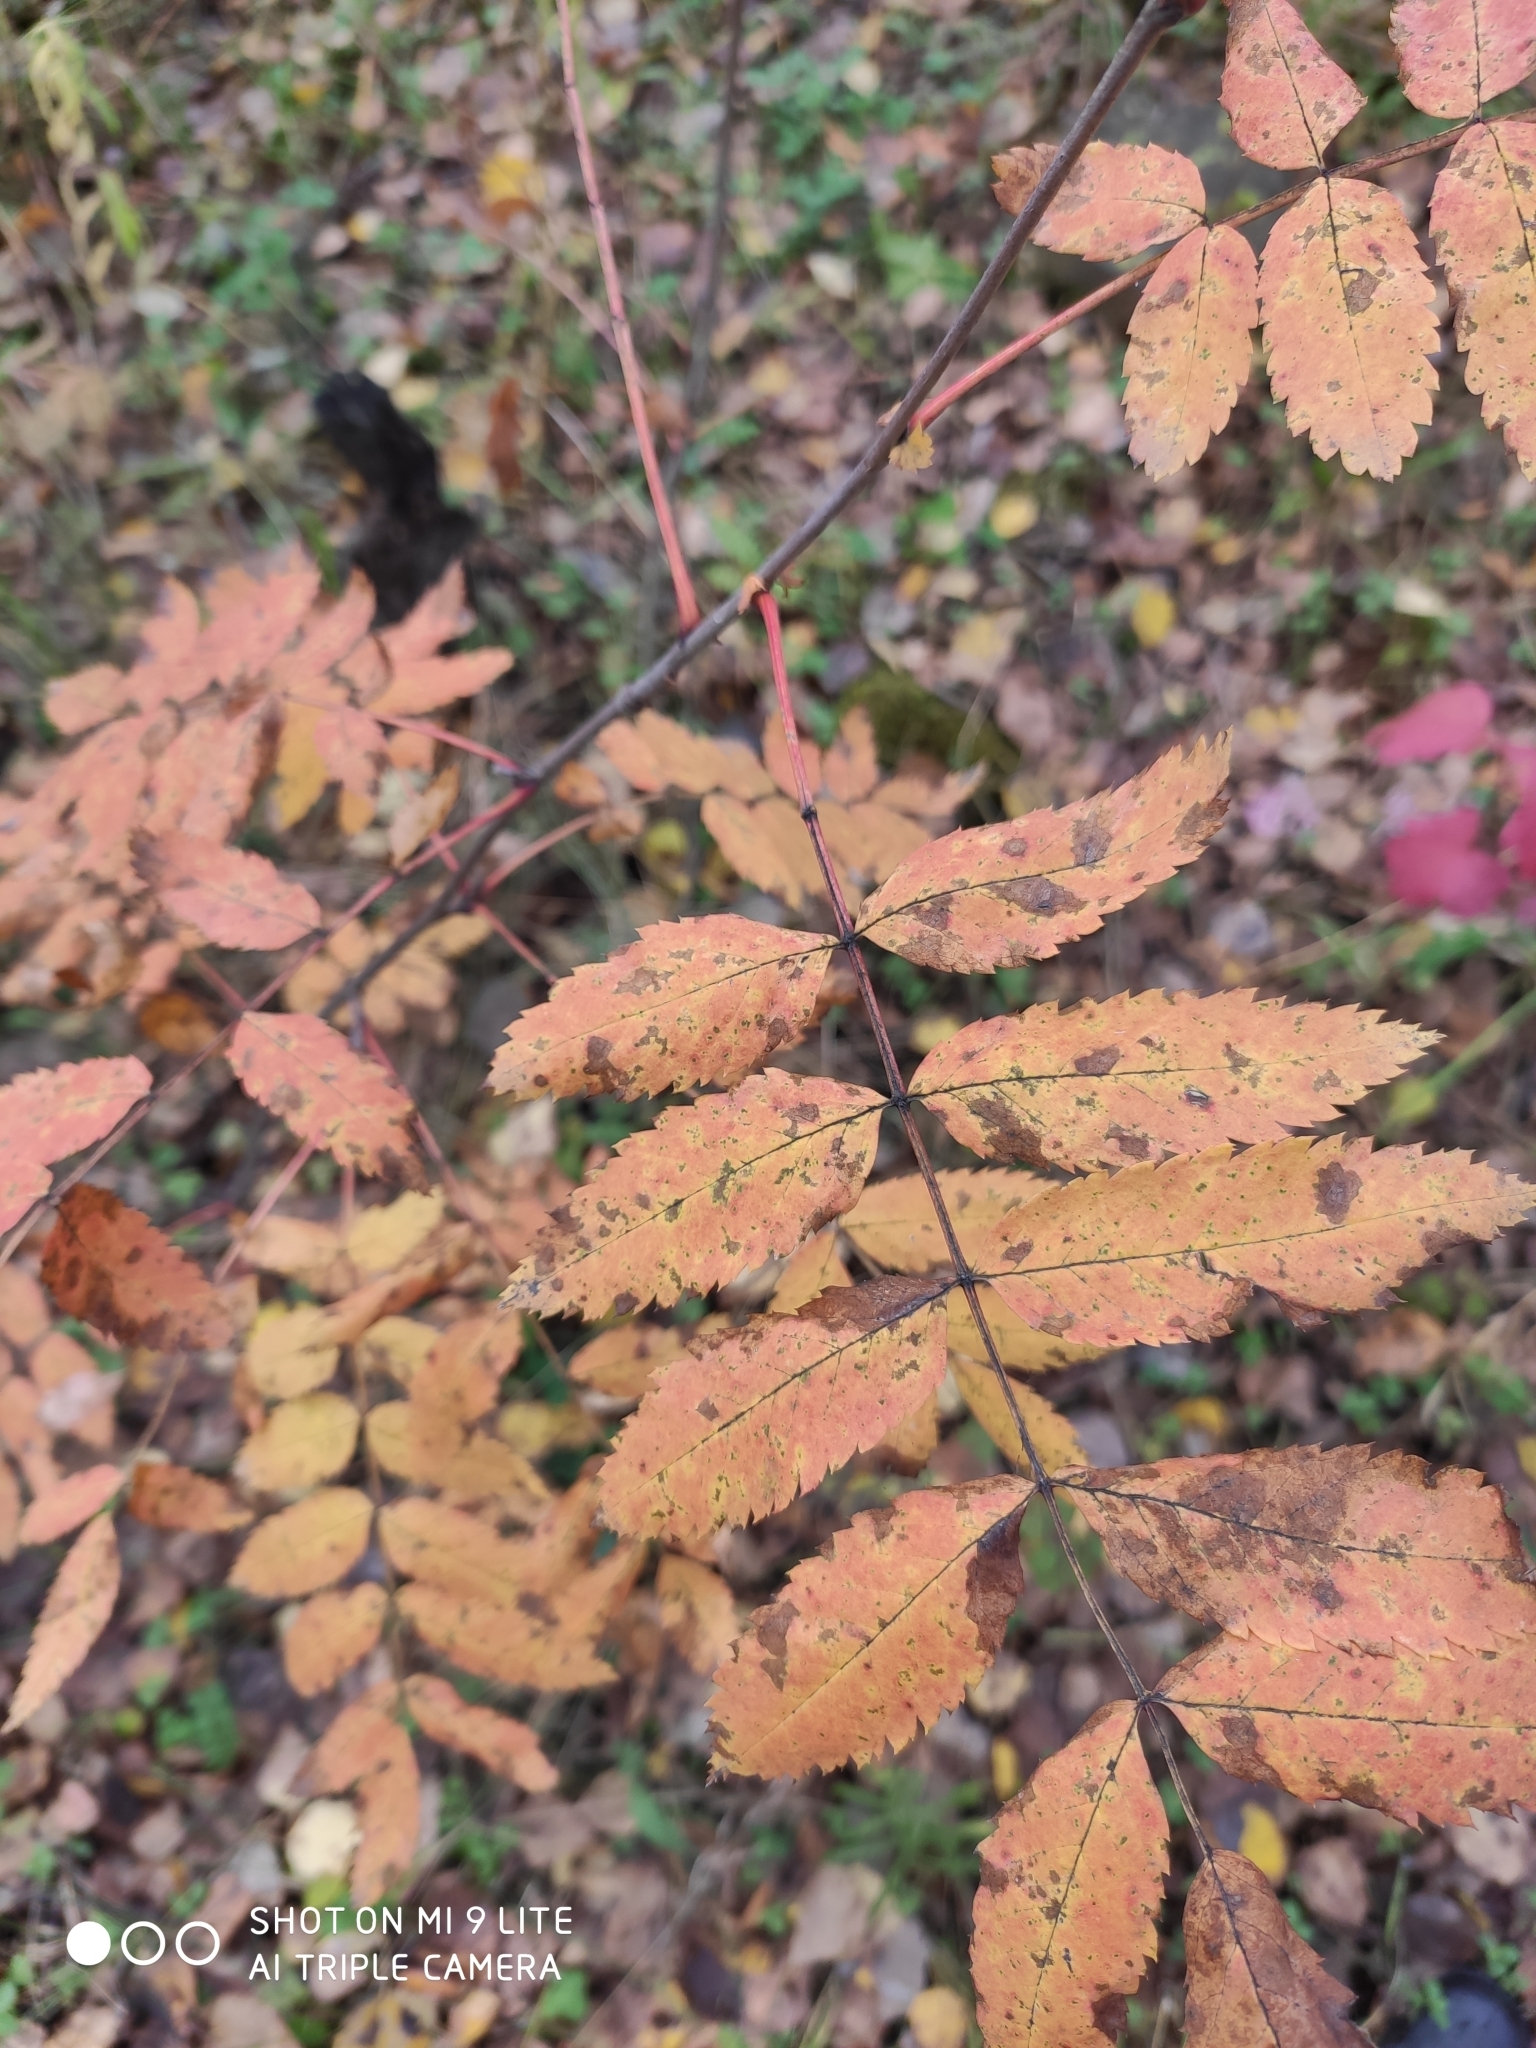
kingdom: Plantae
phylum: Tracheophyta
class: Magnoliopsida
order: Rosales
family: Rosaceae
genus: Sorbus
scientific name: Sorbus aucuparia
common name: Rowan
